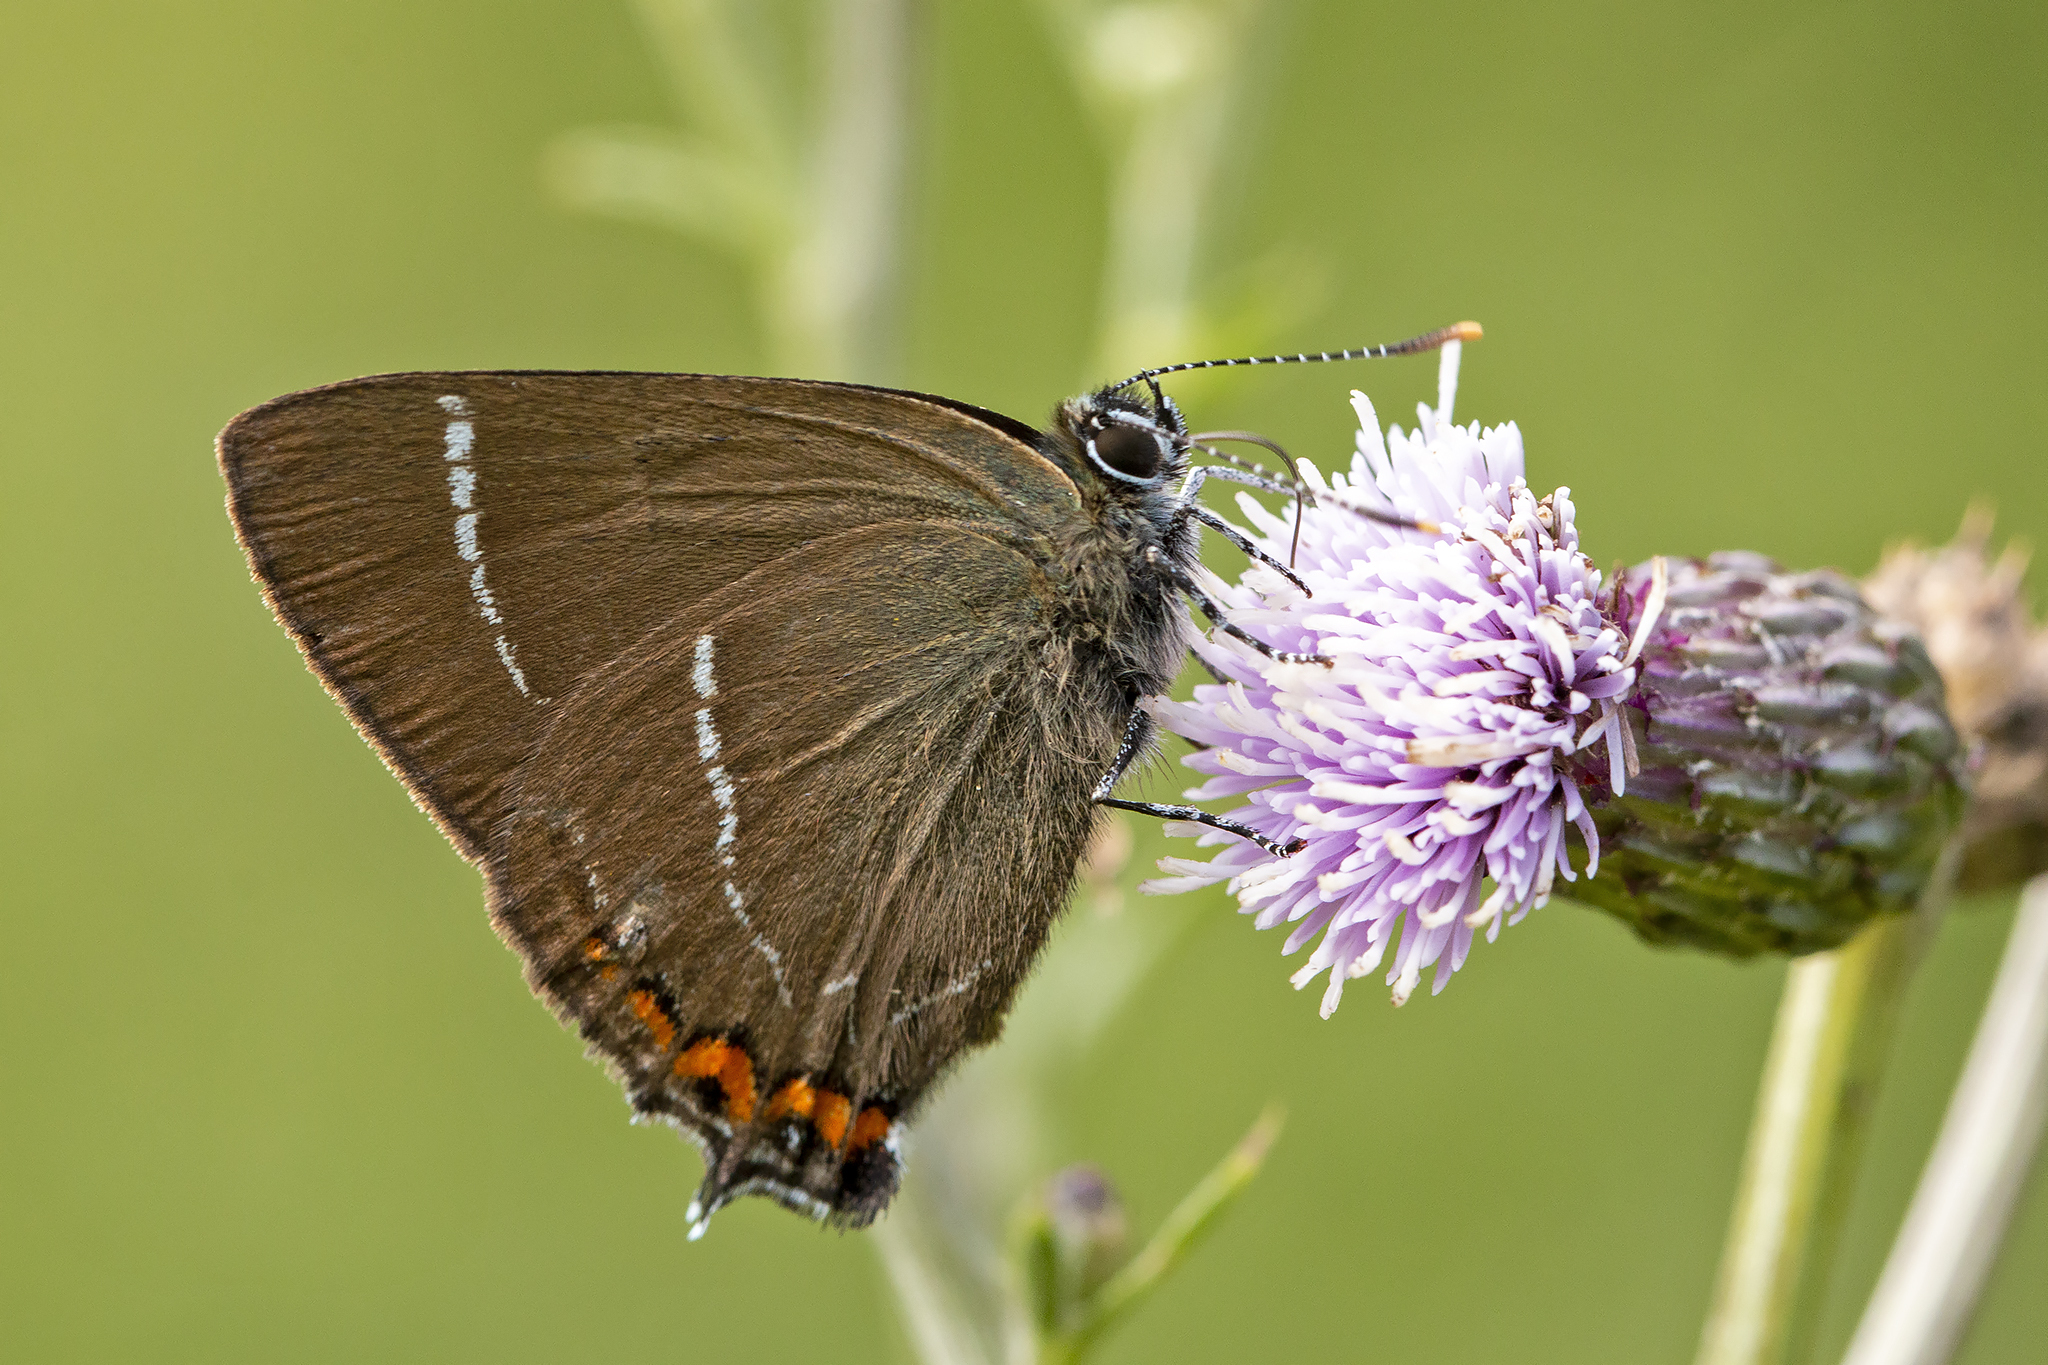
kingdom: Animalia
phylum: Arthropoda
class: Insecta
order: Lepidoptera
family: Lycaenidae
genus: Satyrium
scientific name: Satyrium w-album
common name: White-letter hairstreak
